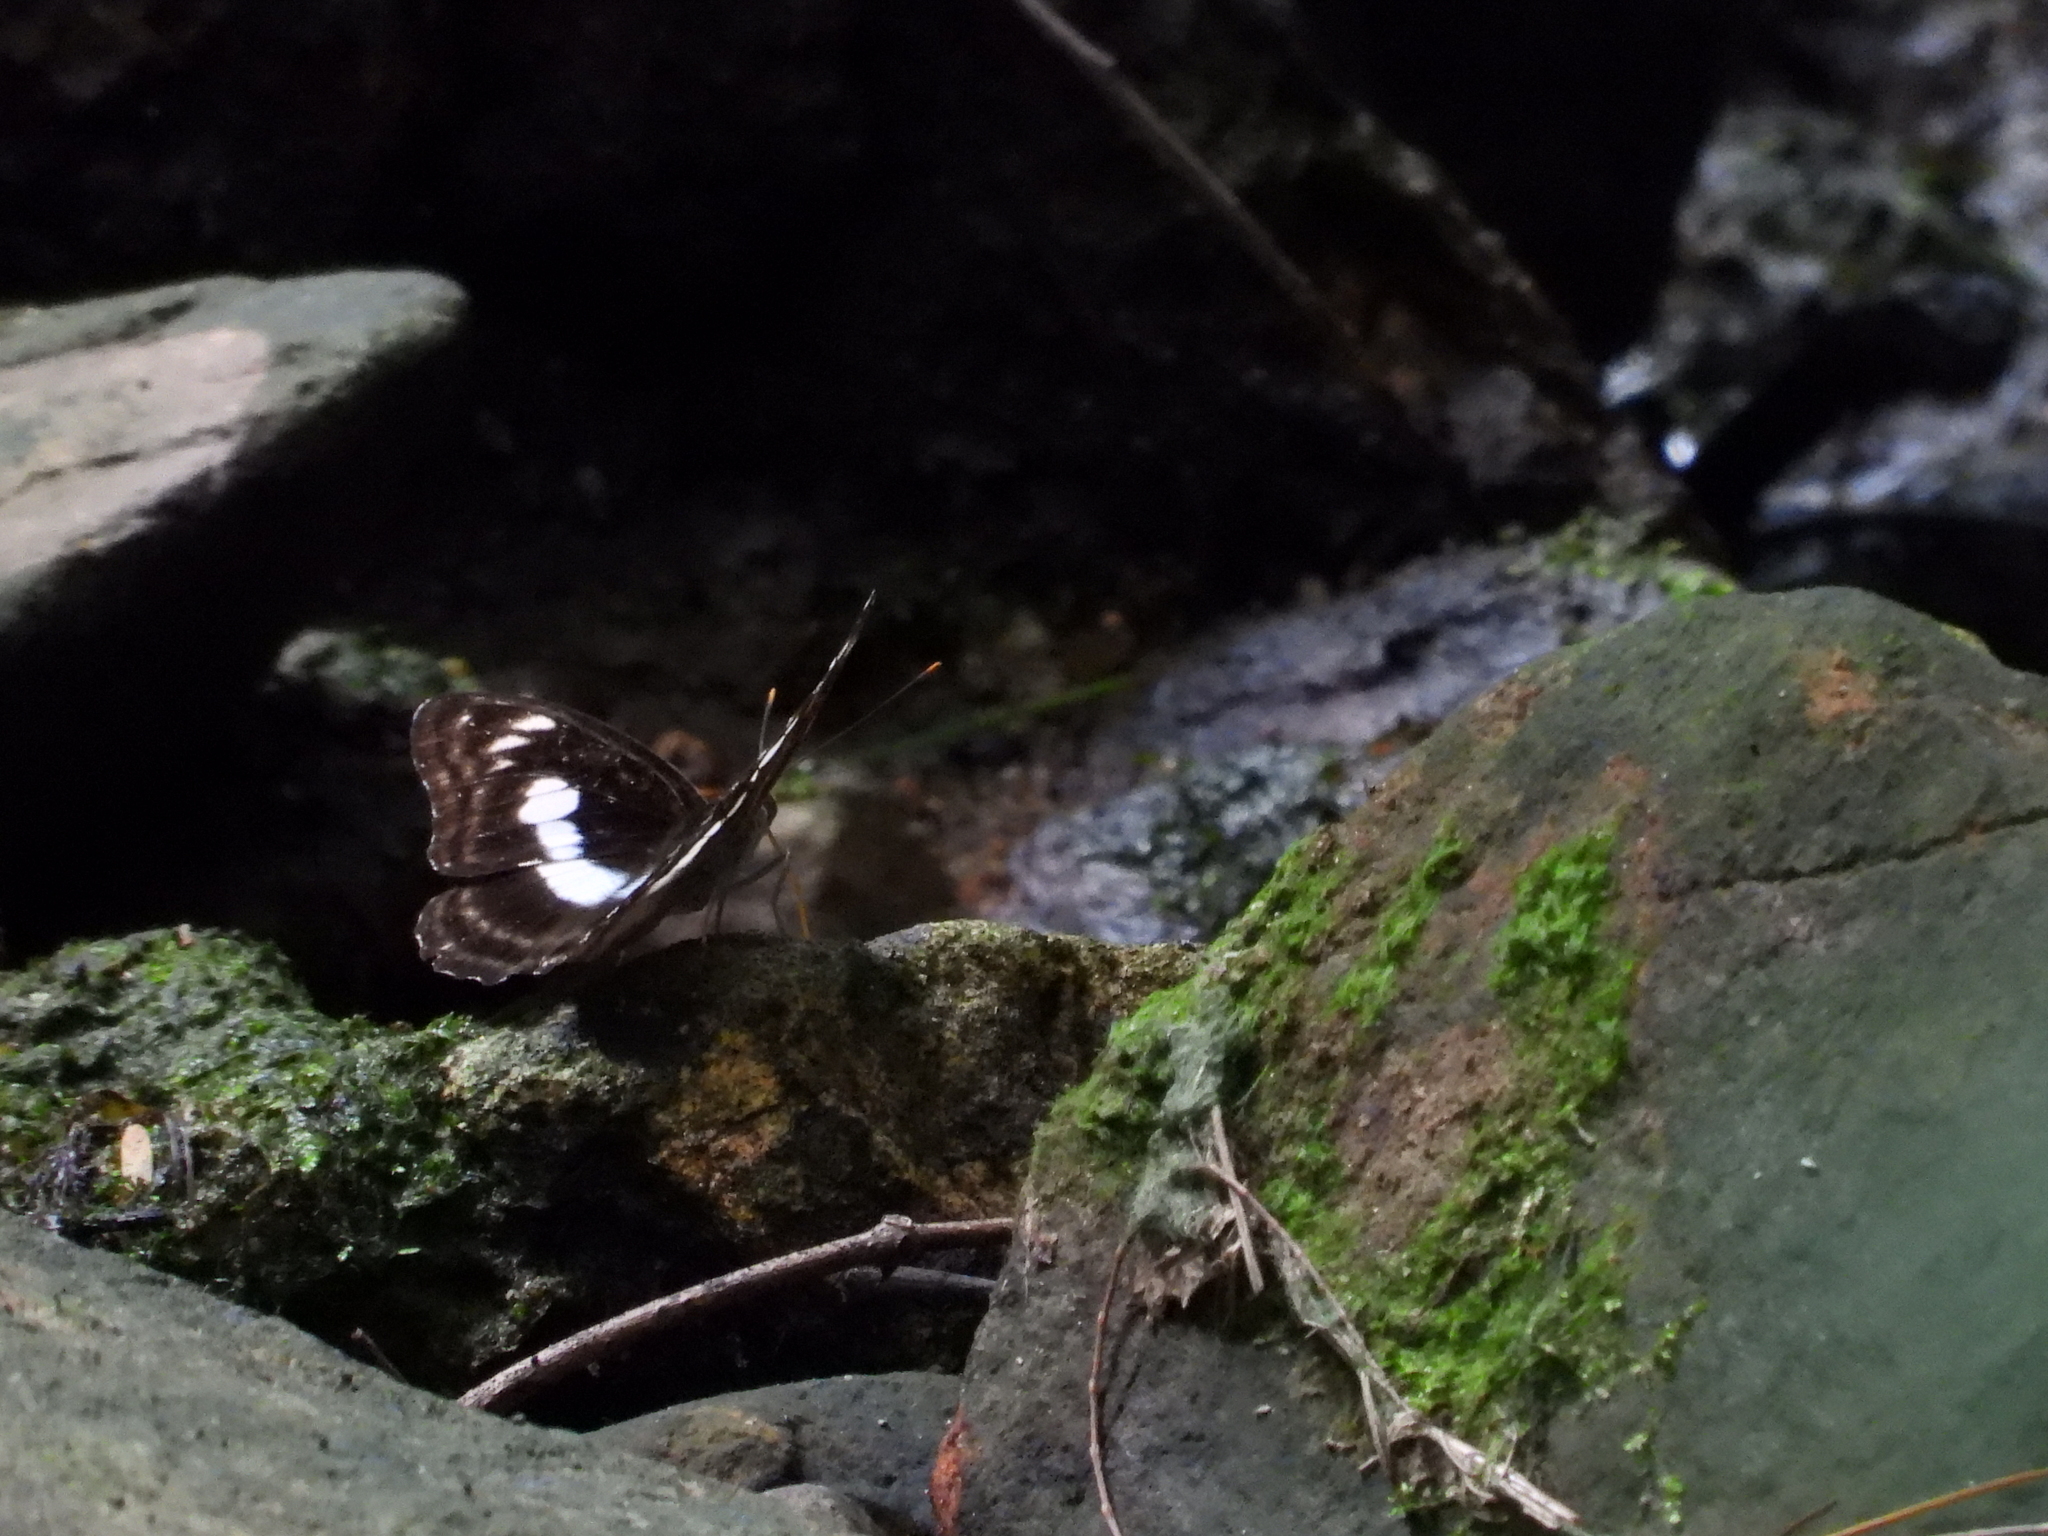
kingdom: Animalia
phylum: Arthropoda
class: Insecta
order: Lepidoptera
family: Nymphalidae
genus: Parathyma
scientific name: Parathyma selenophora
